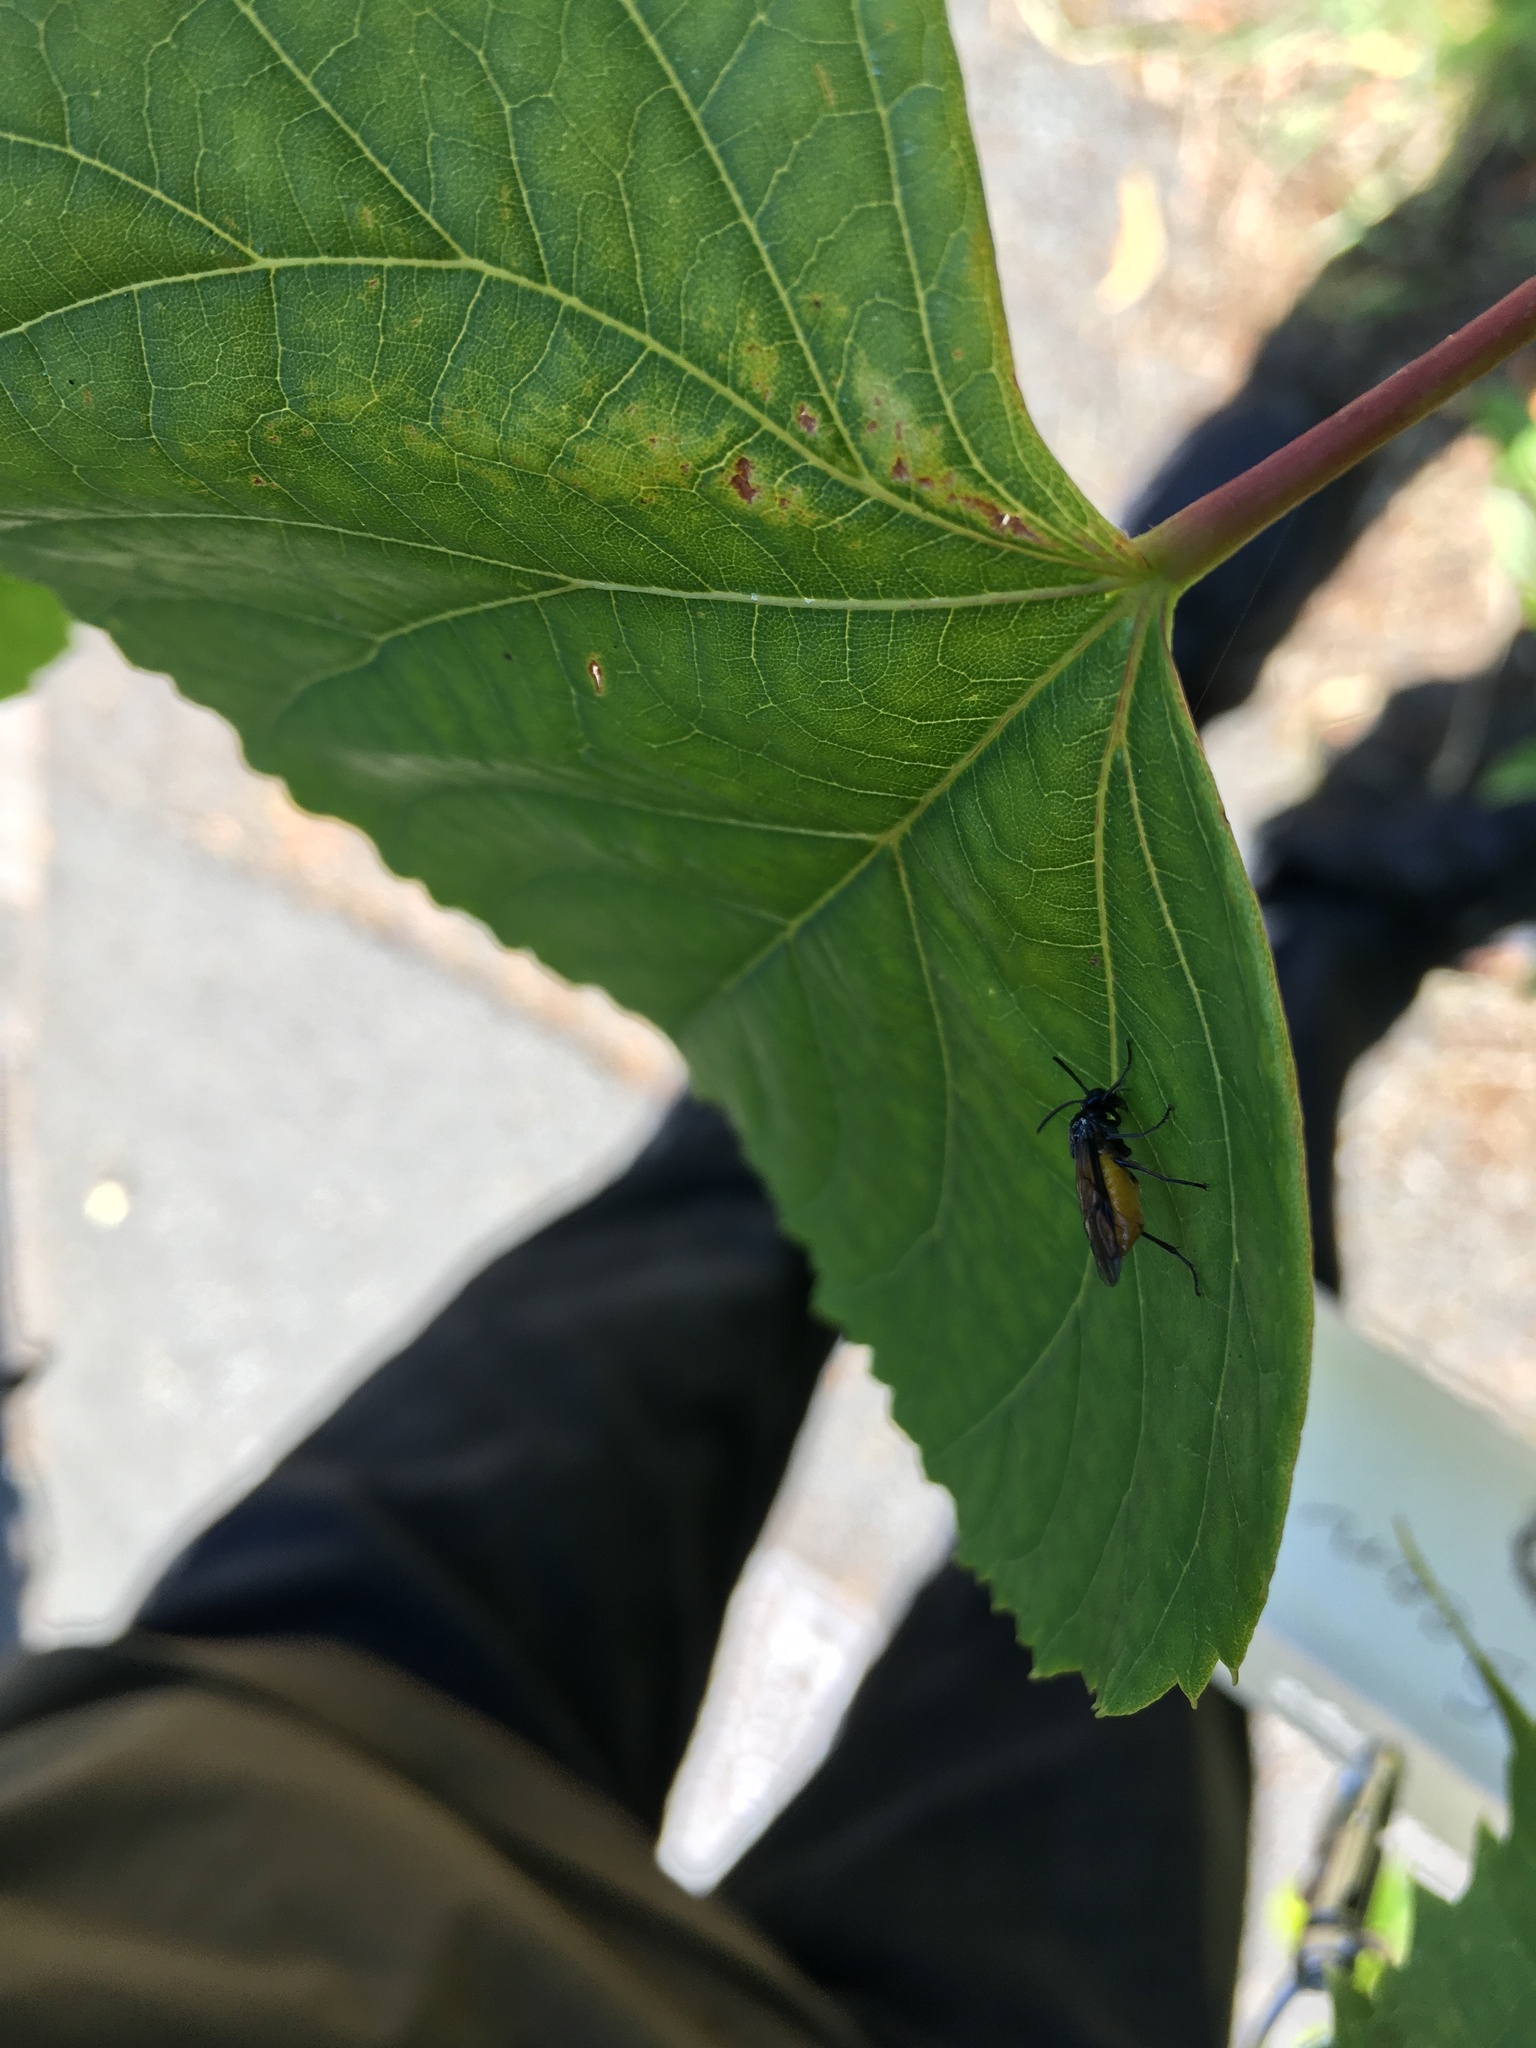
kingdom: Animalia
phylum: Arthropoda
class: Insecta
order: Hymenoptera
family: Argidae
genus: Arge
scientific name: Arge pagana
